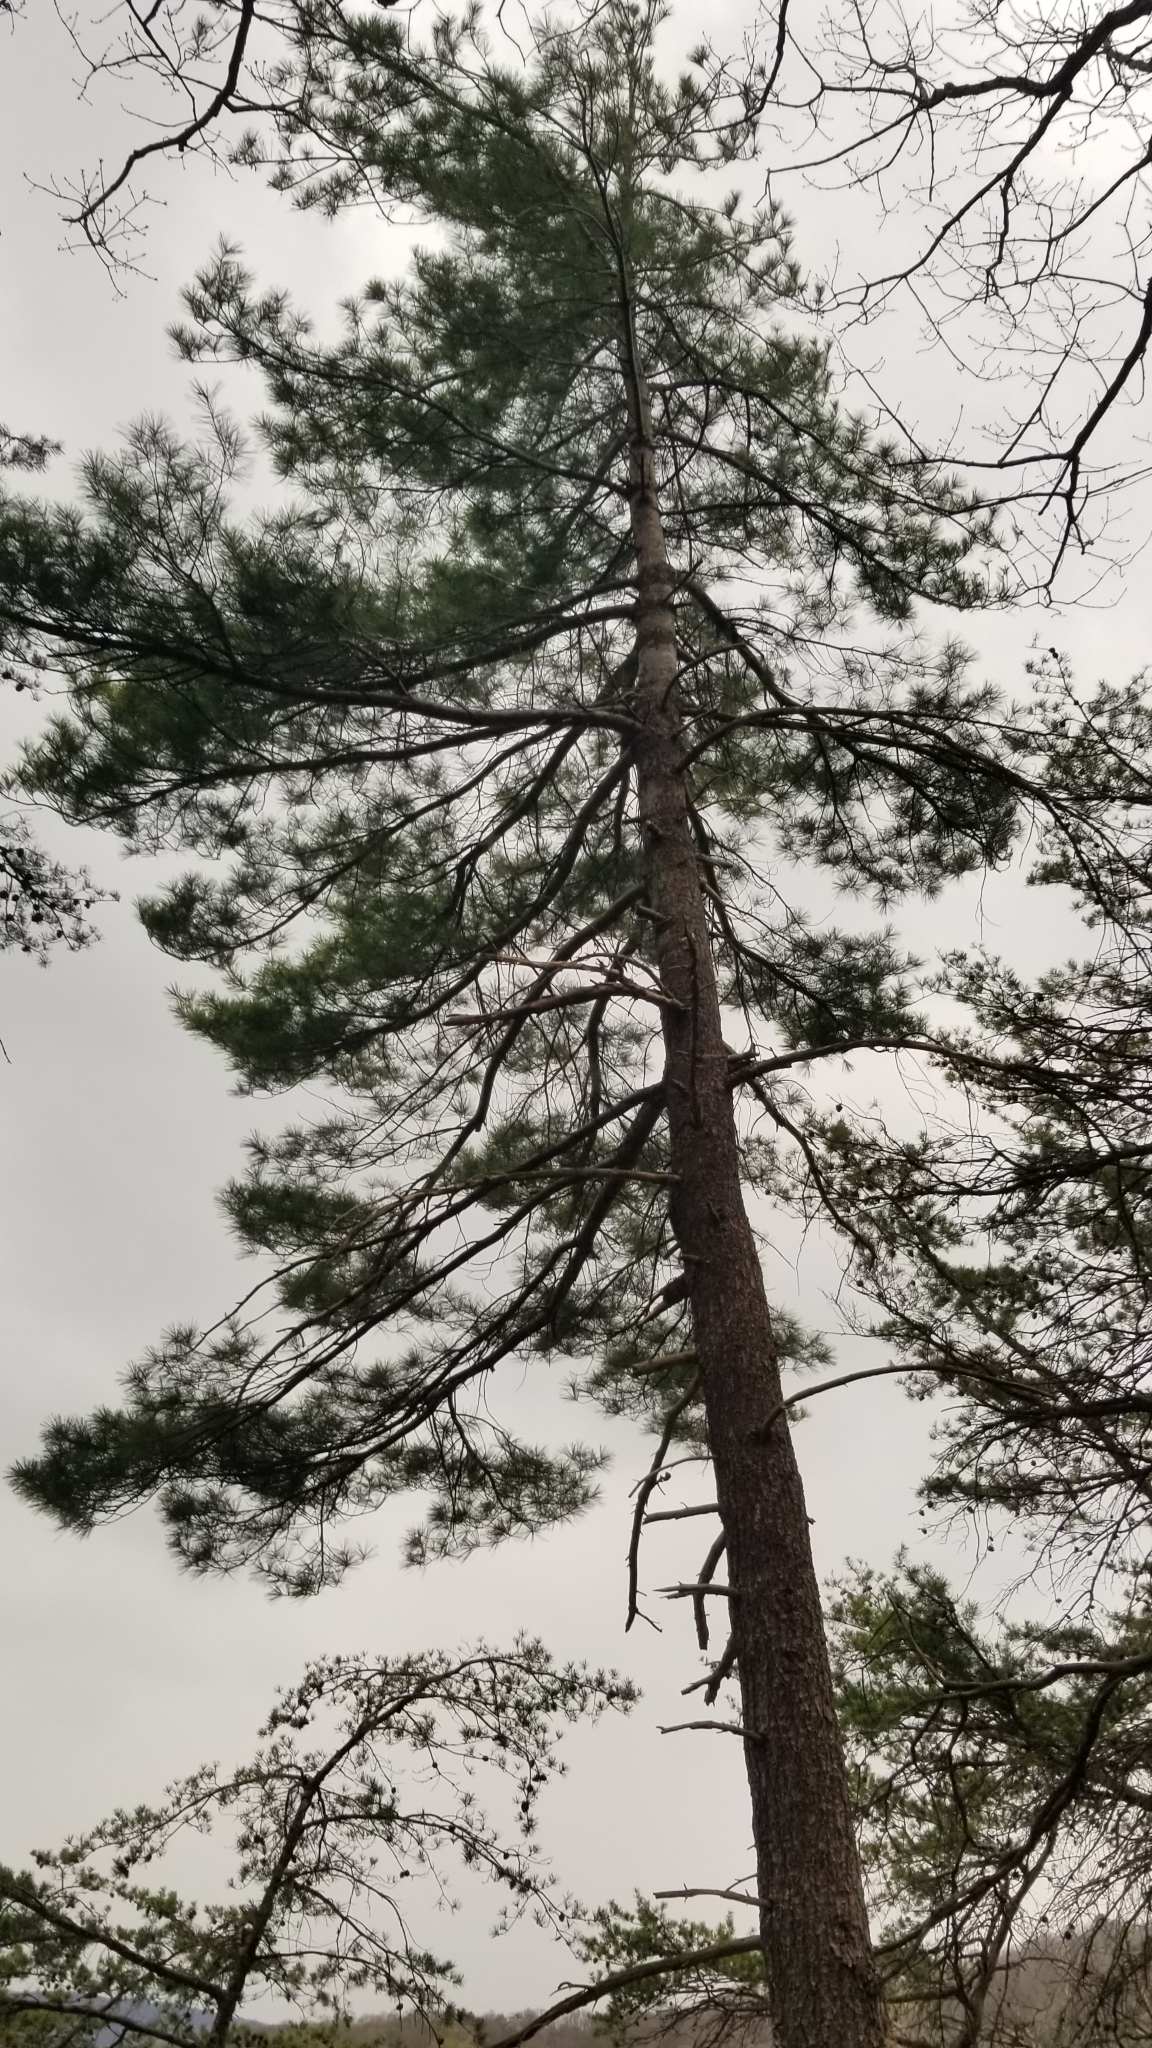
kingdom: Plantae
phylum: Tracheophyta
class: Pinopsida
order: Pinales
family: Pinaceae
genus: Pinus
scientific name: Pinus strobus
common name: Weymouth pine
